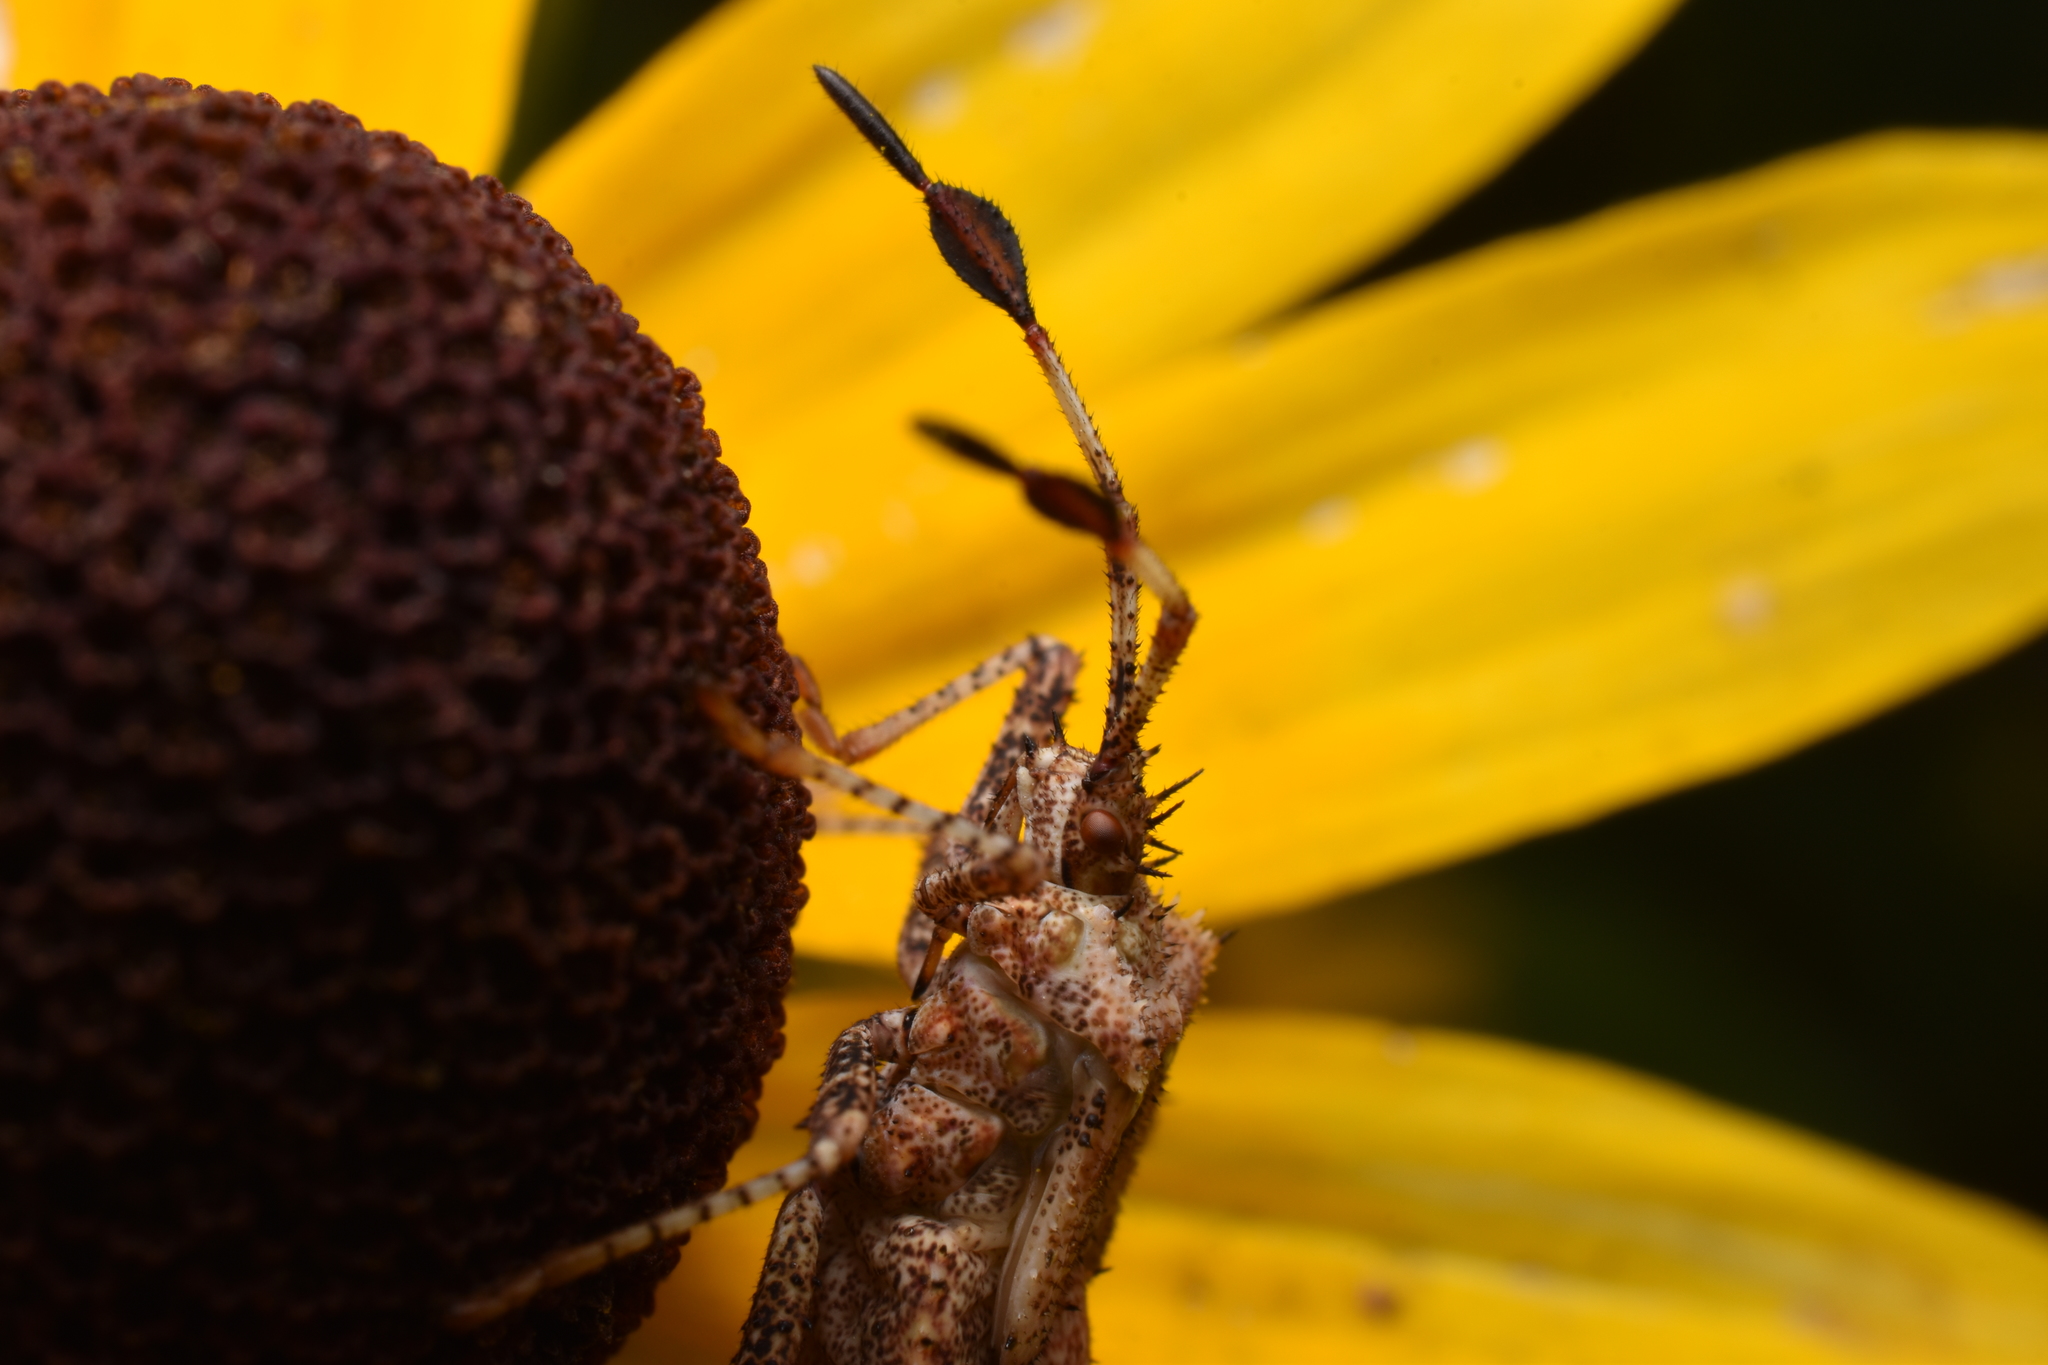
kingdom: Animalia
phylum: Arthropoda
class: Insecta
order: Hemiptera
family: Coreidae
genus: Euthochtha
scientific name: Euthochtha galeator
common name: Helmeted squash bug
